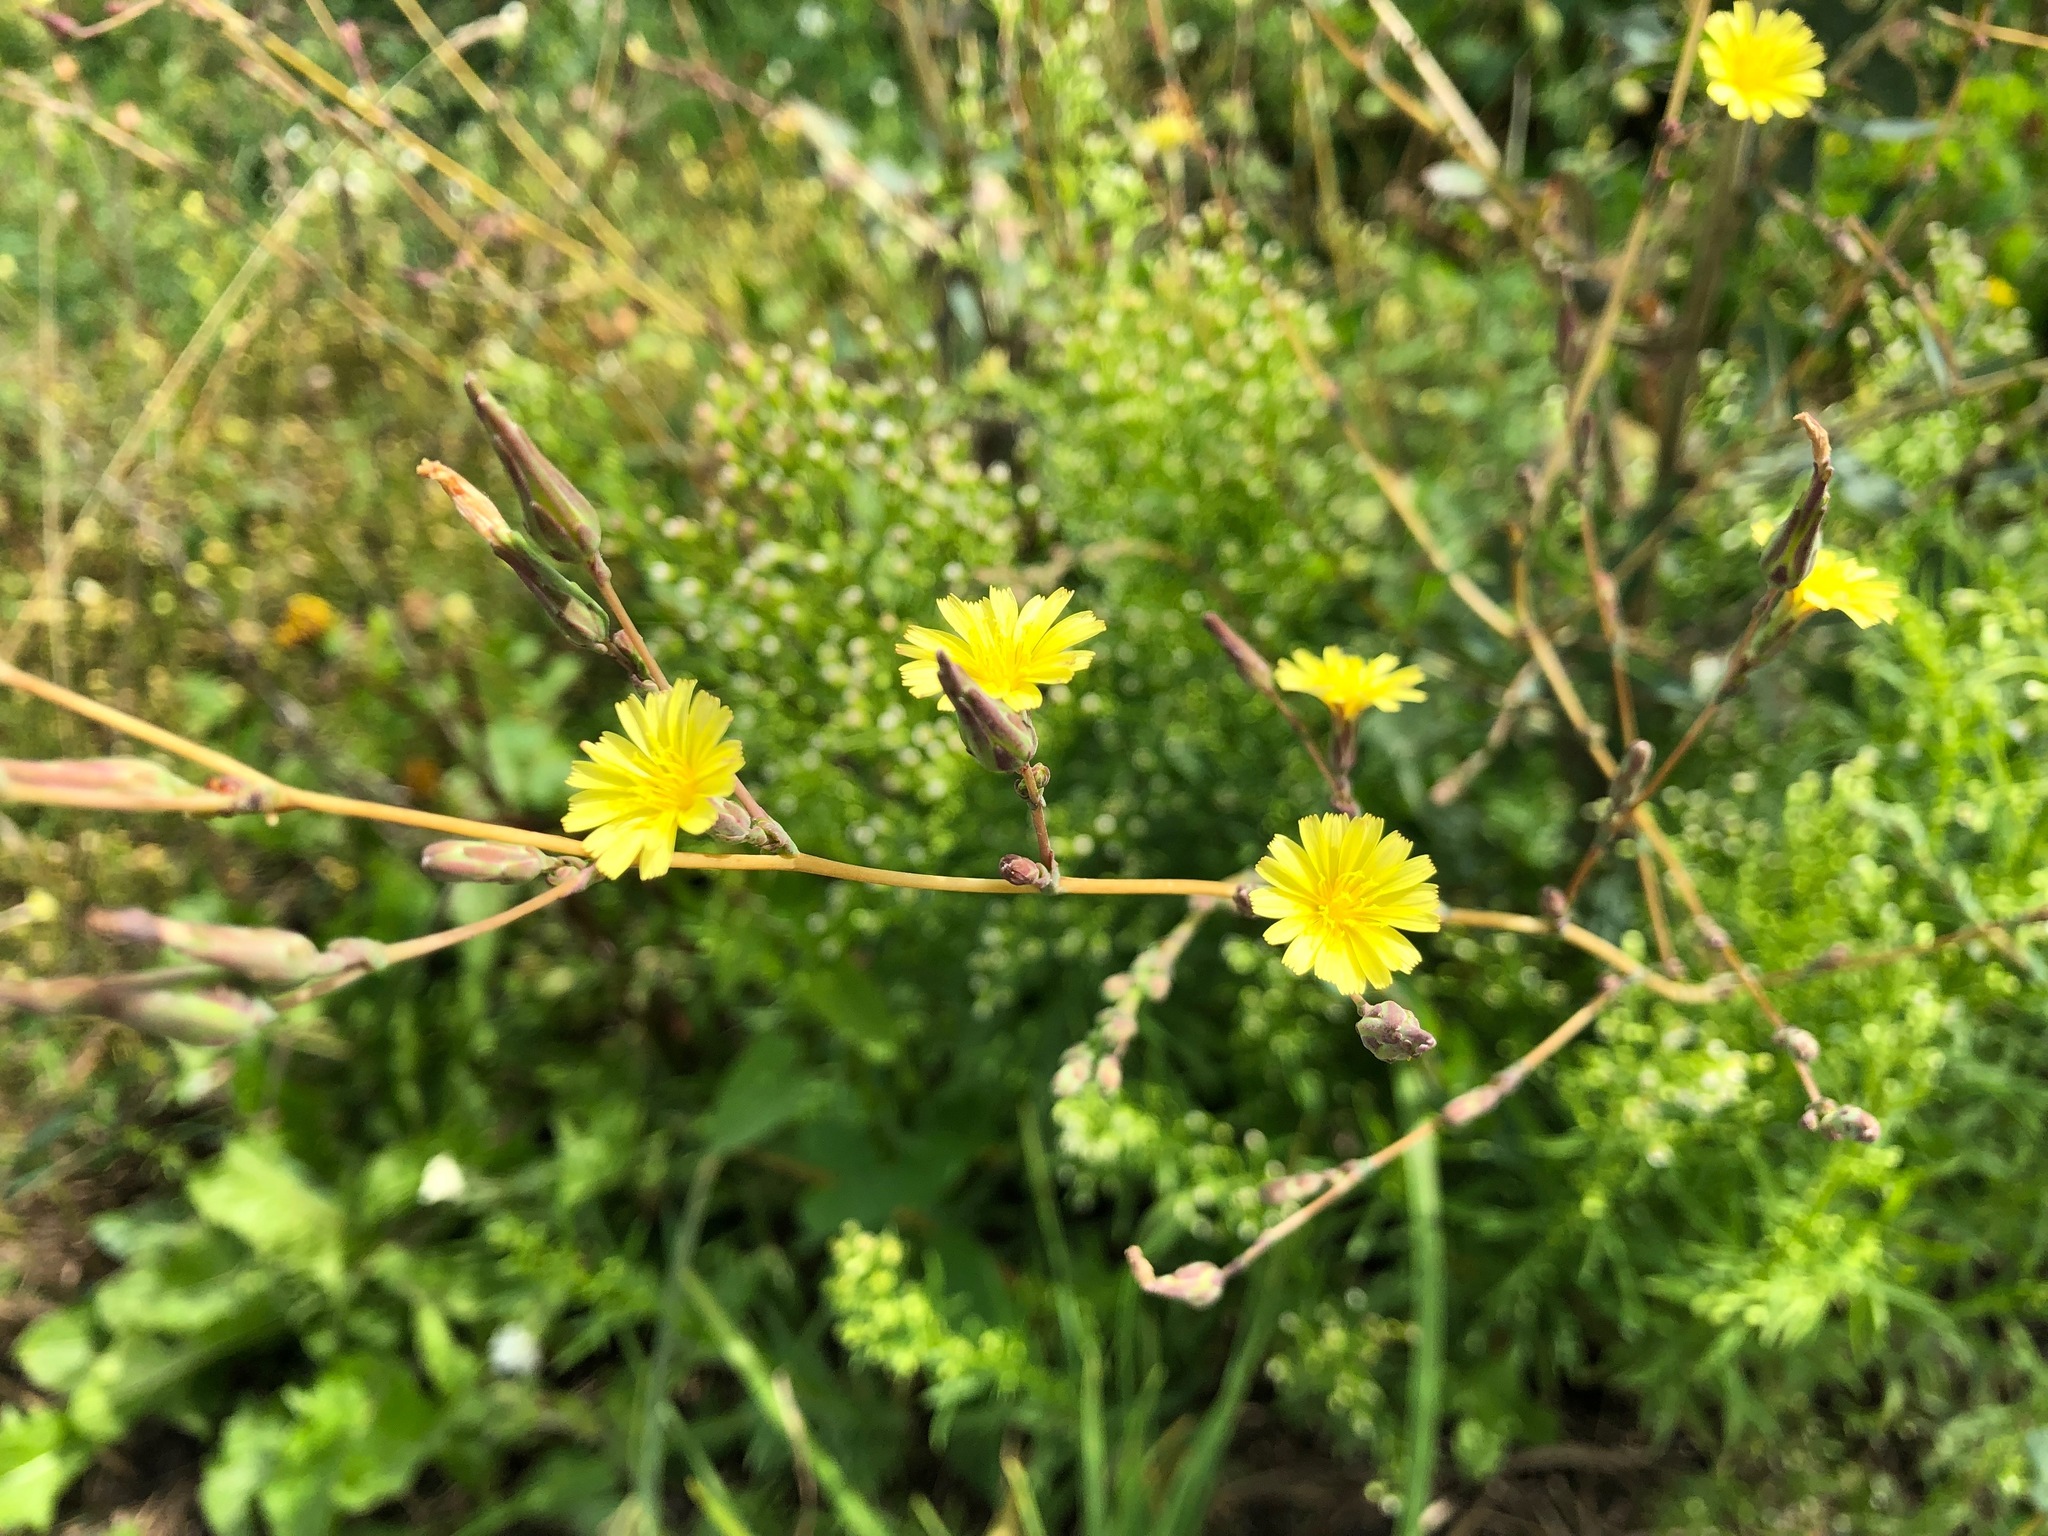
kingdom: Plantae
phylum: Tracheophyta
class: Magnoliopsida
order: Asterales
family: Asteraceae
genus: Lactuca
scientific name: Lactuca serriola
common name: Prickly lettuce
